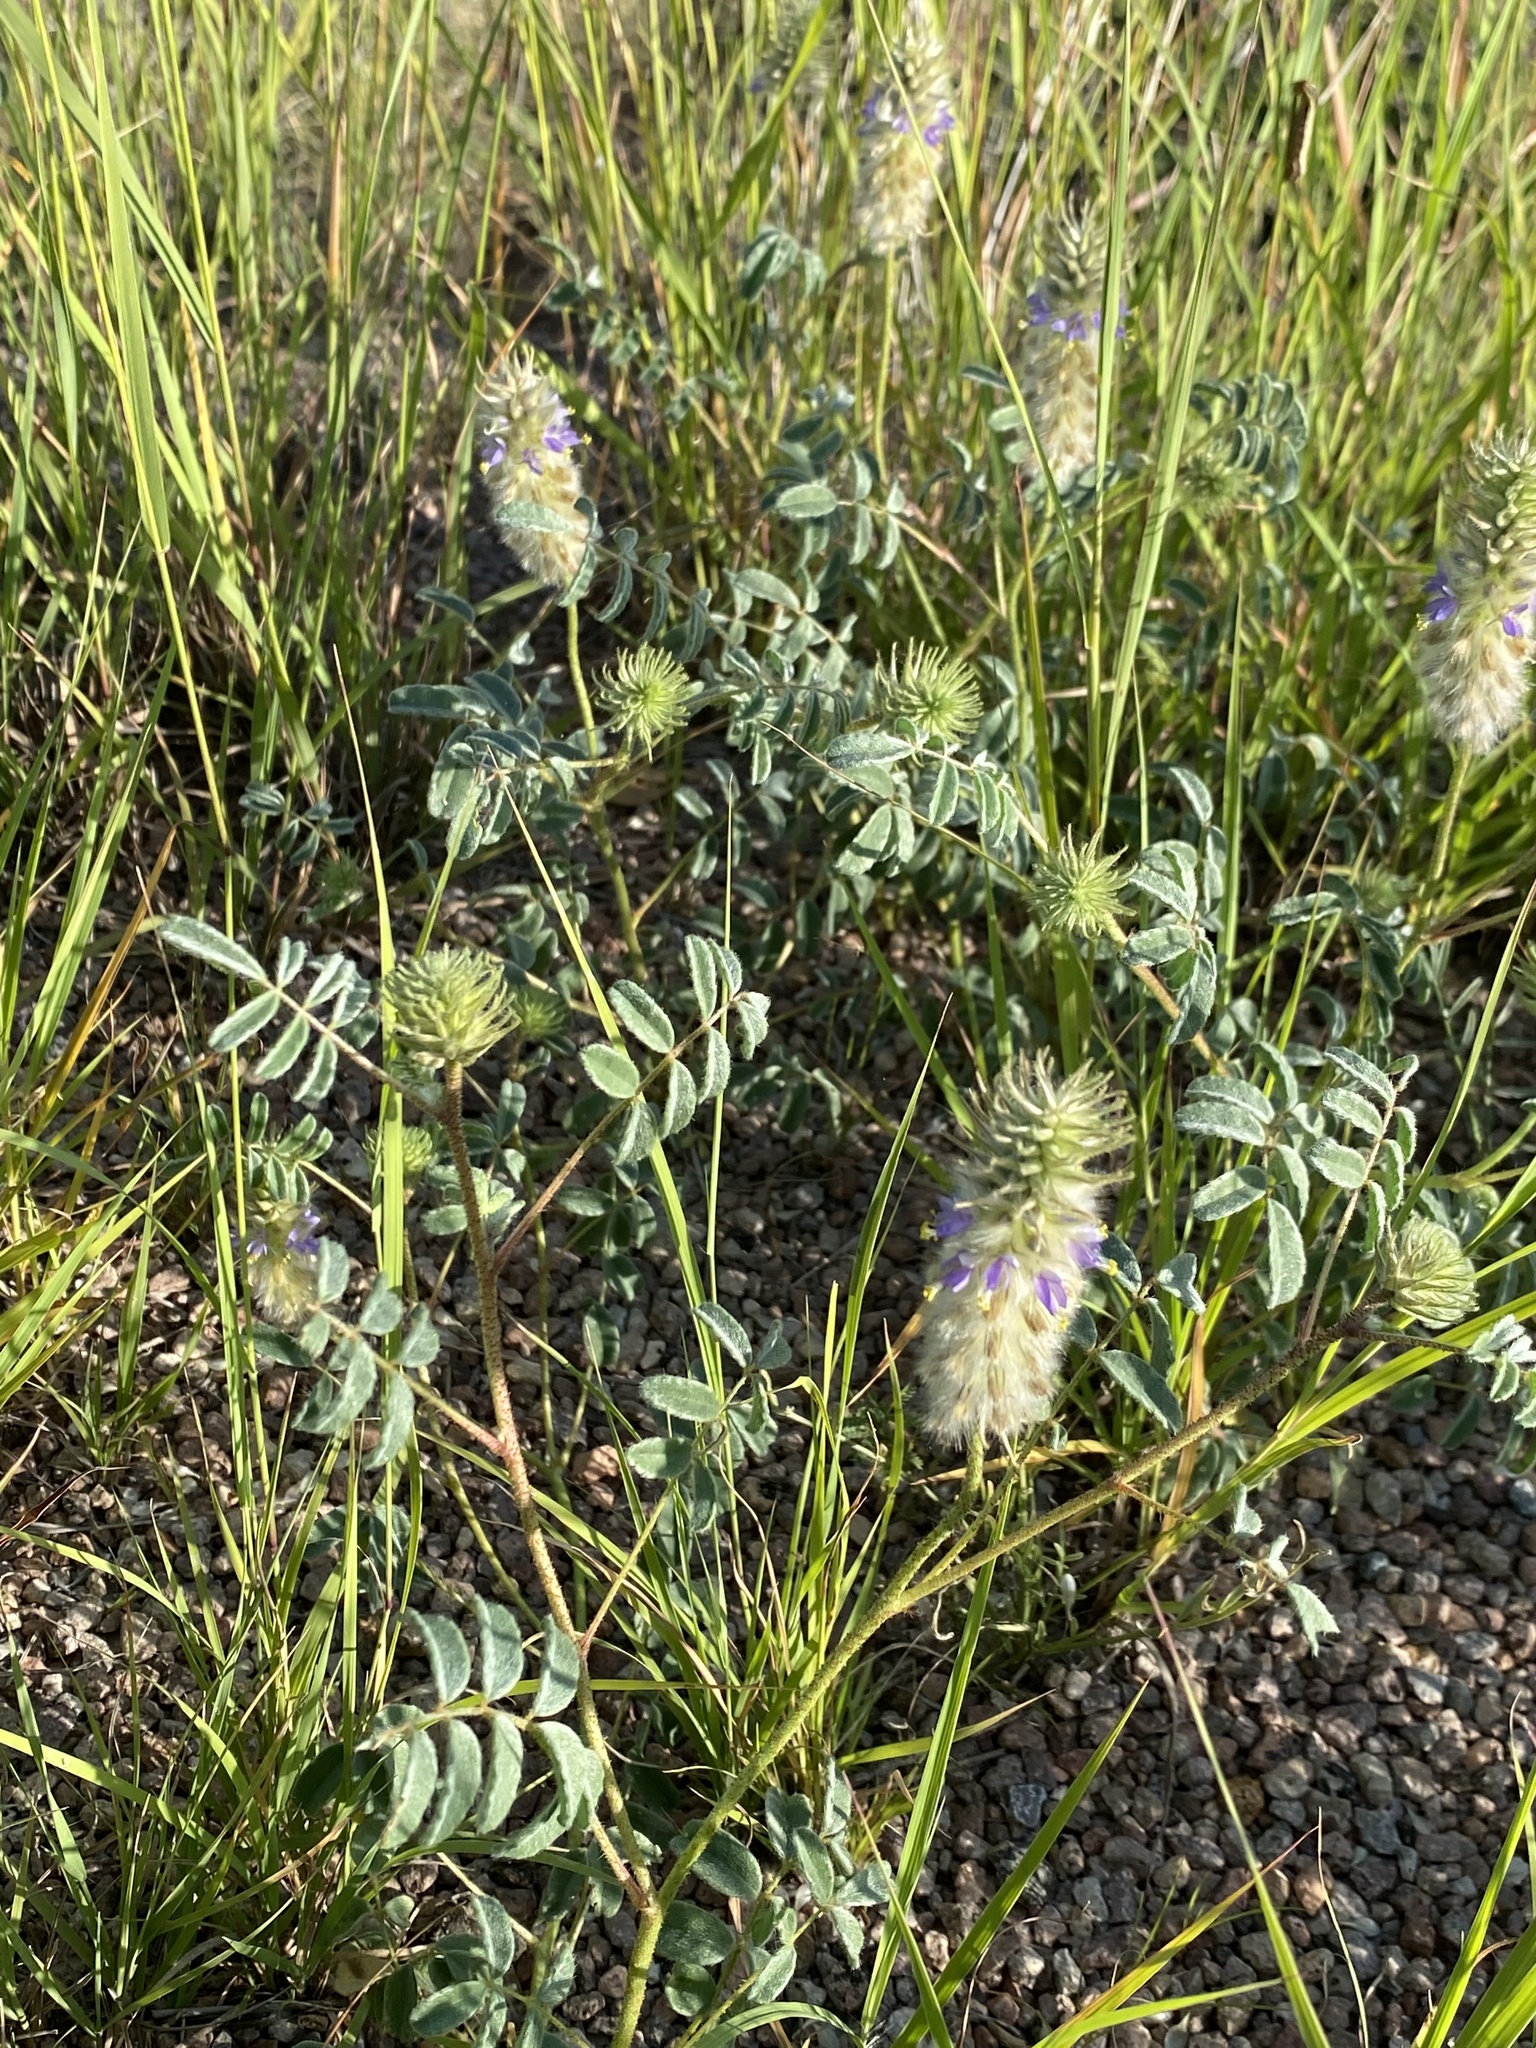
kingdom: Plantae
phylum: Tracheophyta
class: Magnoliopsida
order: Fabales
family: Fabaceae
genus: Dalea
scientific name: Dalea lachnostachys
